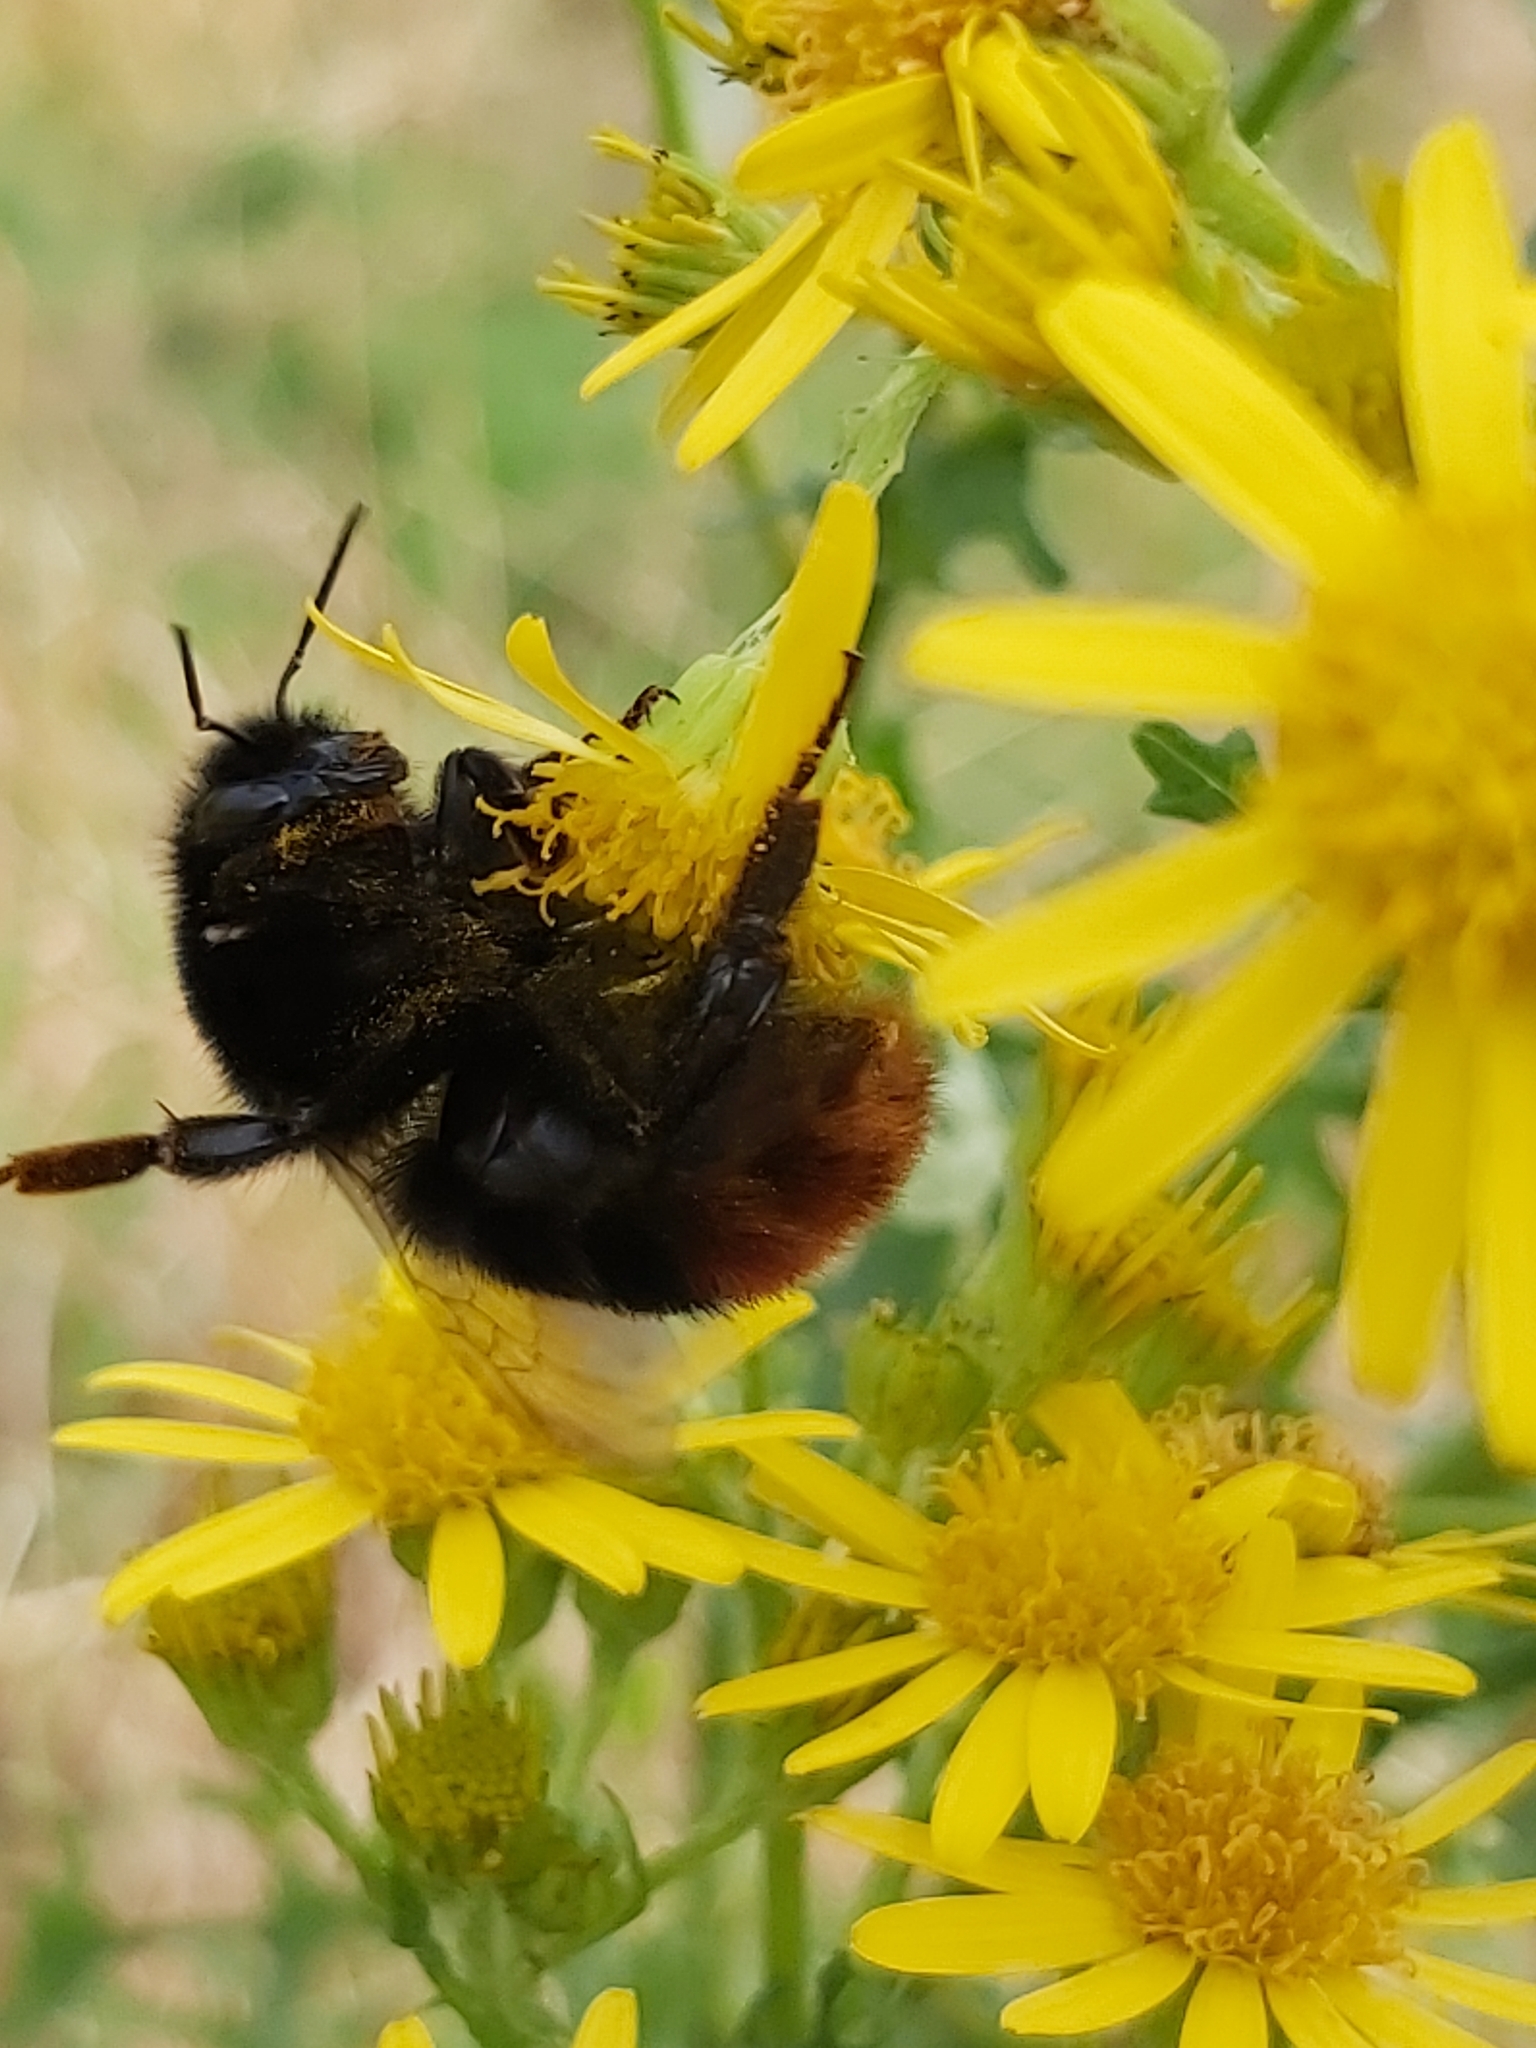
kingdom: Animalia
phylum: Arthropoda
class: Insecta
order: Hymenoptera
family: Apidae
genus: Bombus
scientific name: Bombus lapidarius
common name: Large red-tailed humble-bee
